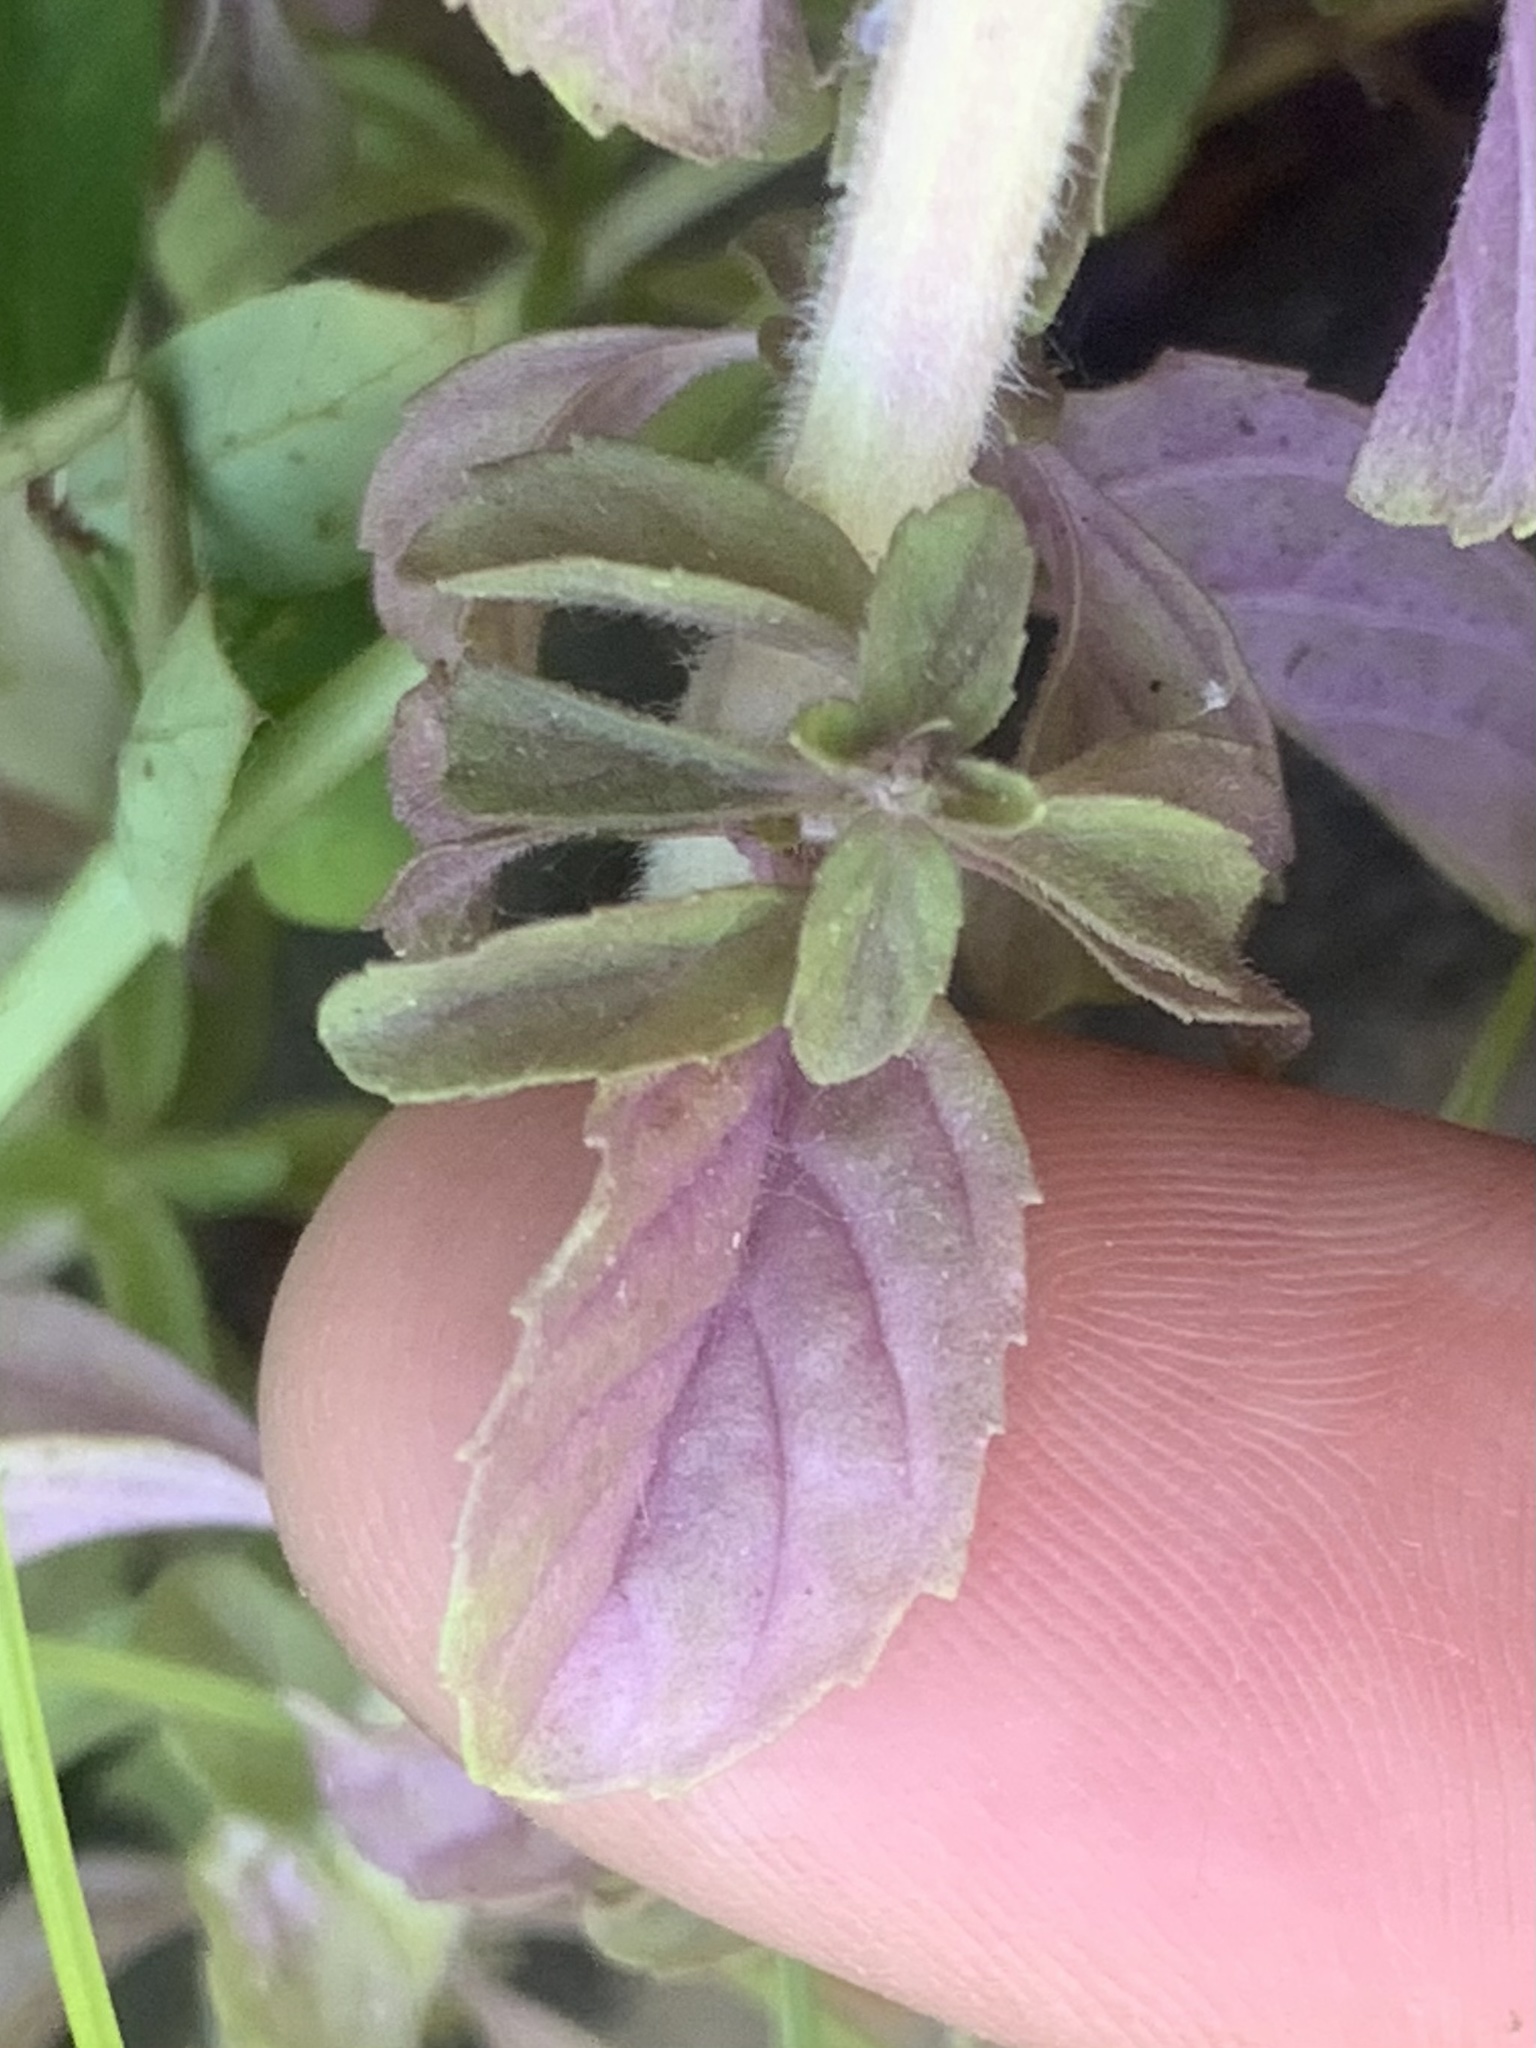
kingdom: Plantae
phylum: Tracheophyta
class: Magnoliopsida
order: Lamiales
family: Lamiaceae
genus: Mentha
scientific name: Mentha pulegium
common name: Pennyroyal
